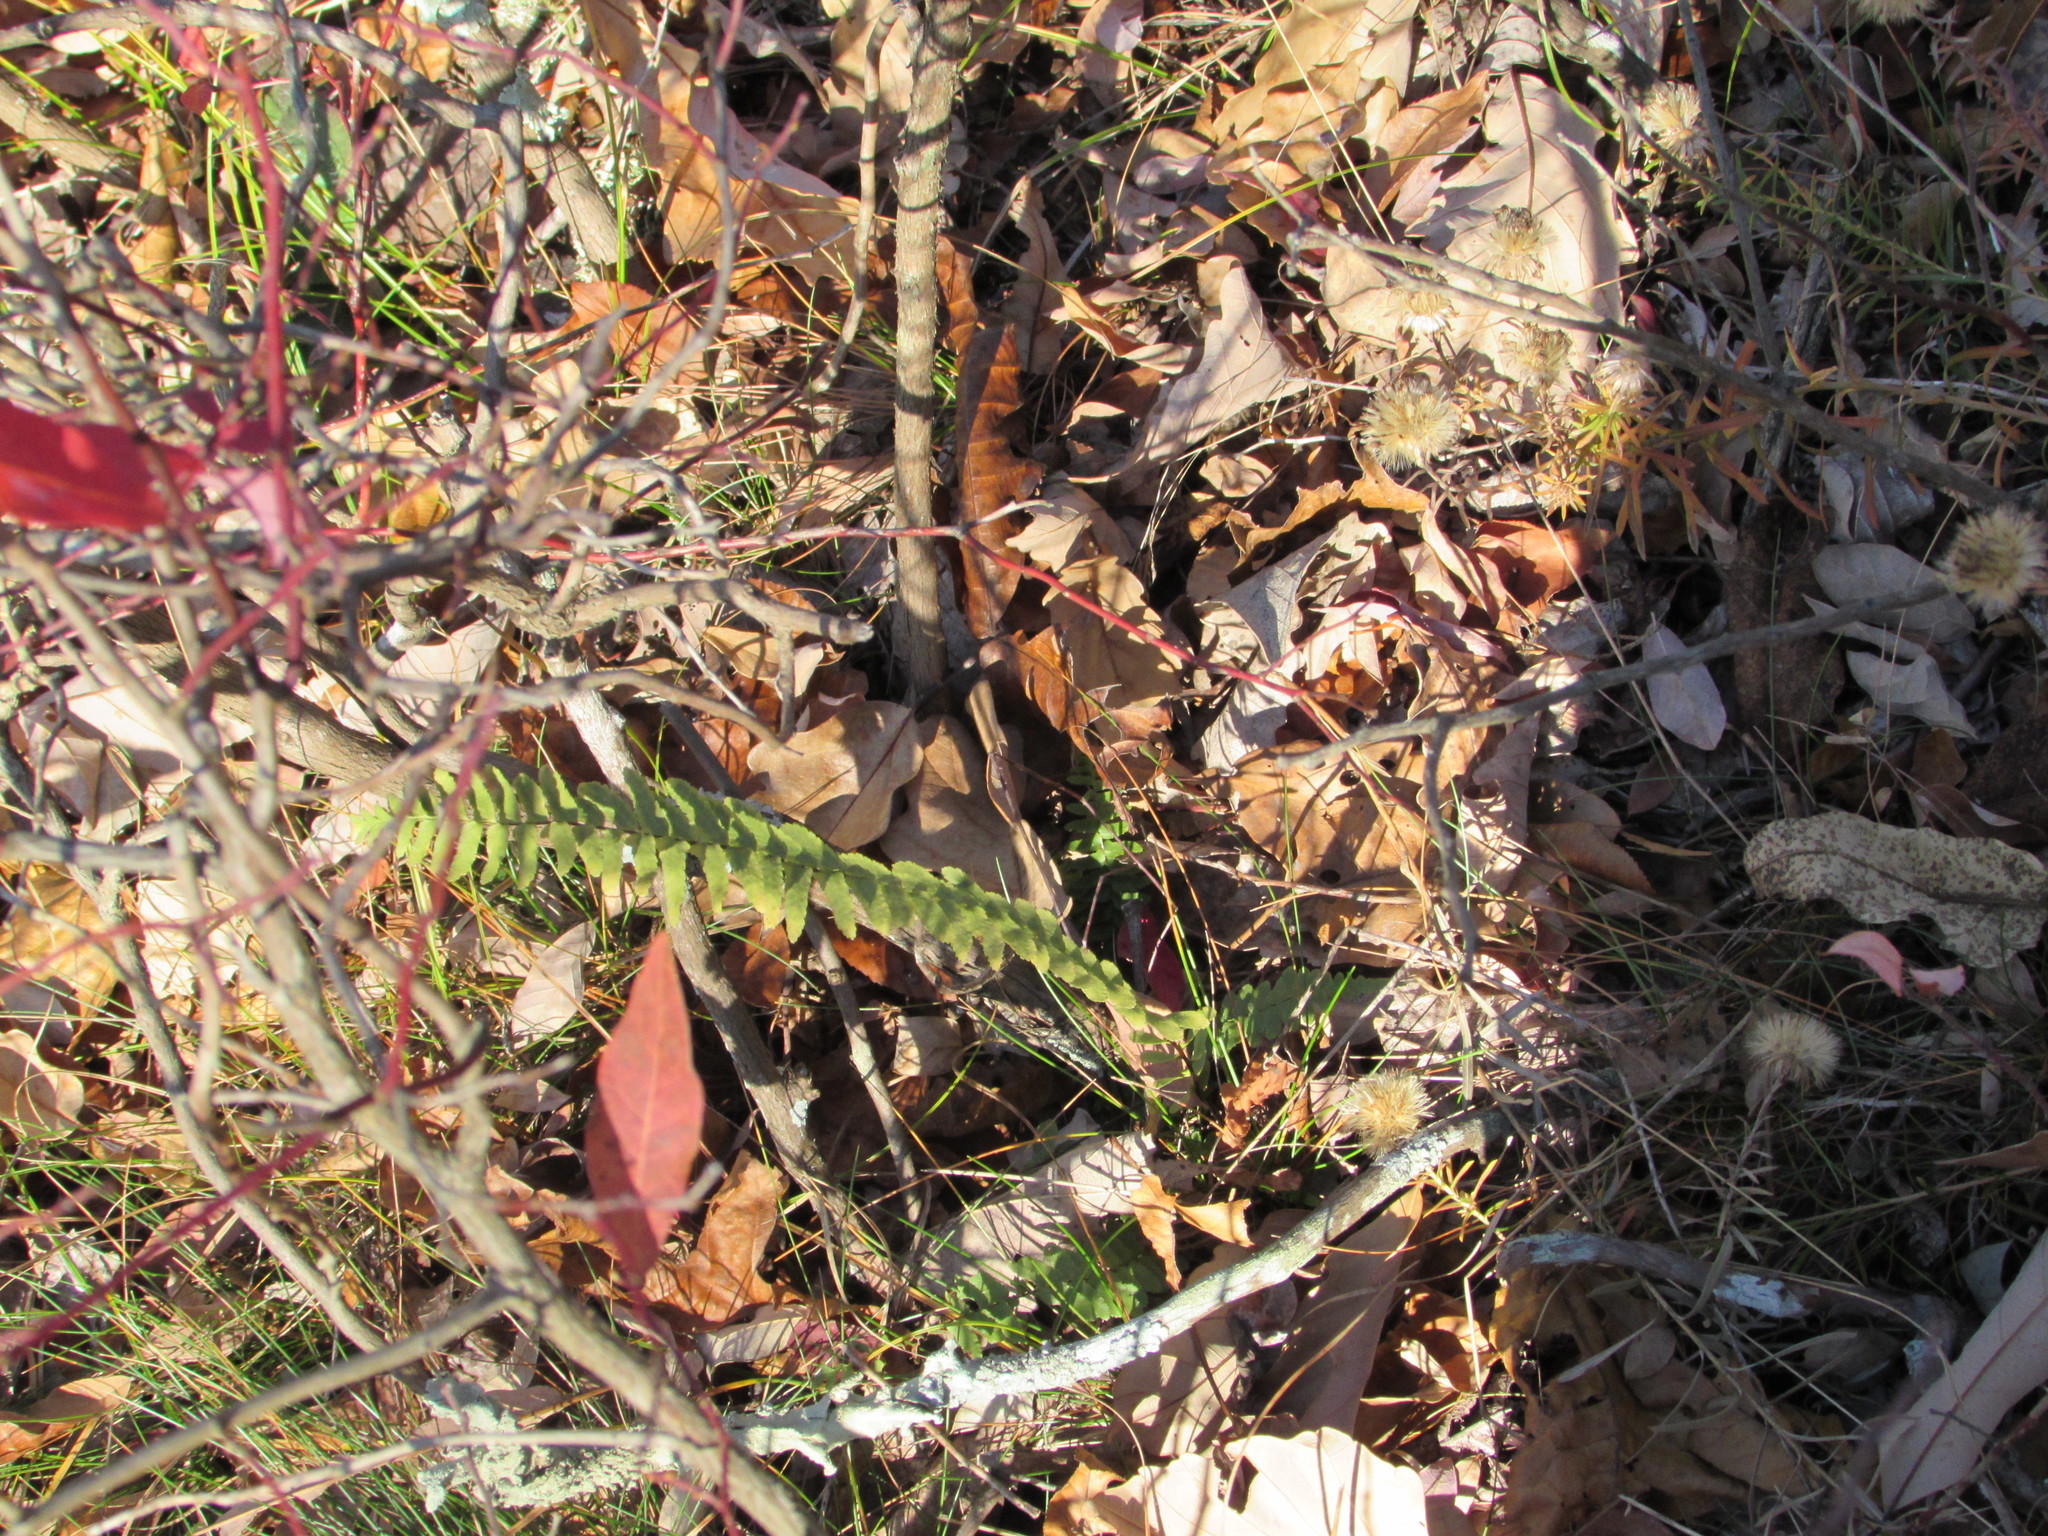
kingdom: Plantae
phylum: Tracheophyta
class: Polypodiopsida
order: Polypodiales
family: Aspleniaceae
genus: Asplenium
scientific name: Asplenium platyneuron
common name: Ebony spleenwort
